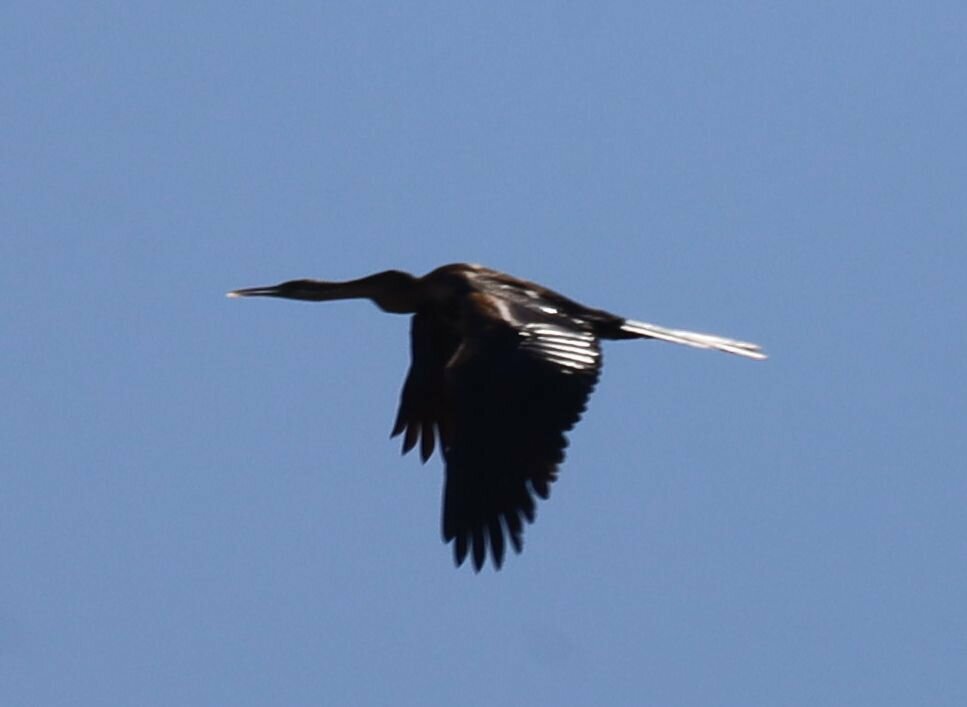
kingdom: Animalia
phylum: Chordata
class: Aves
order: Suliformes
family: Anhingidae
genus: Anhinga
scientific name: Anhinga rufa
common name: African darter
